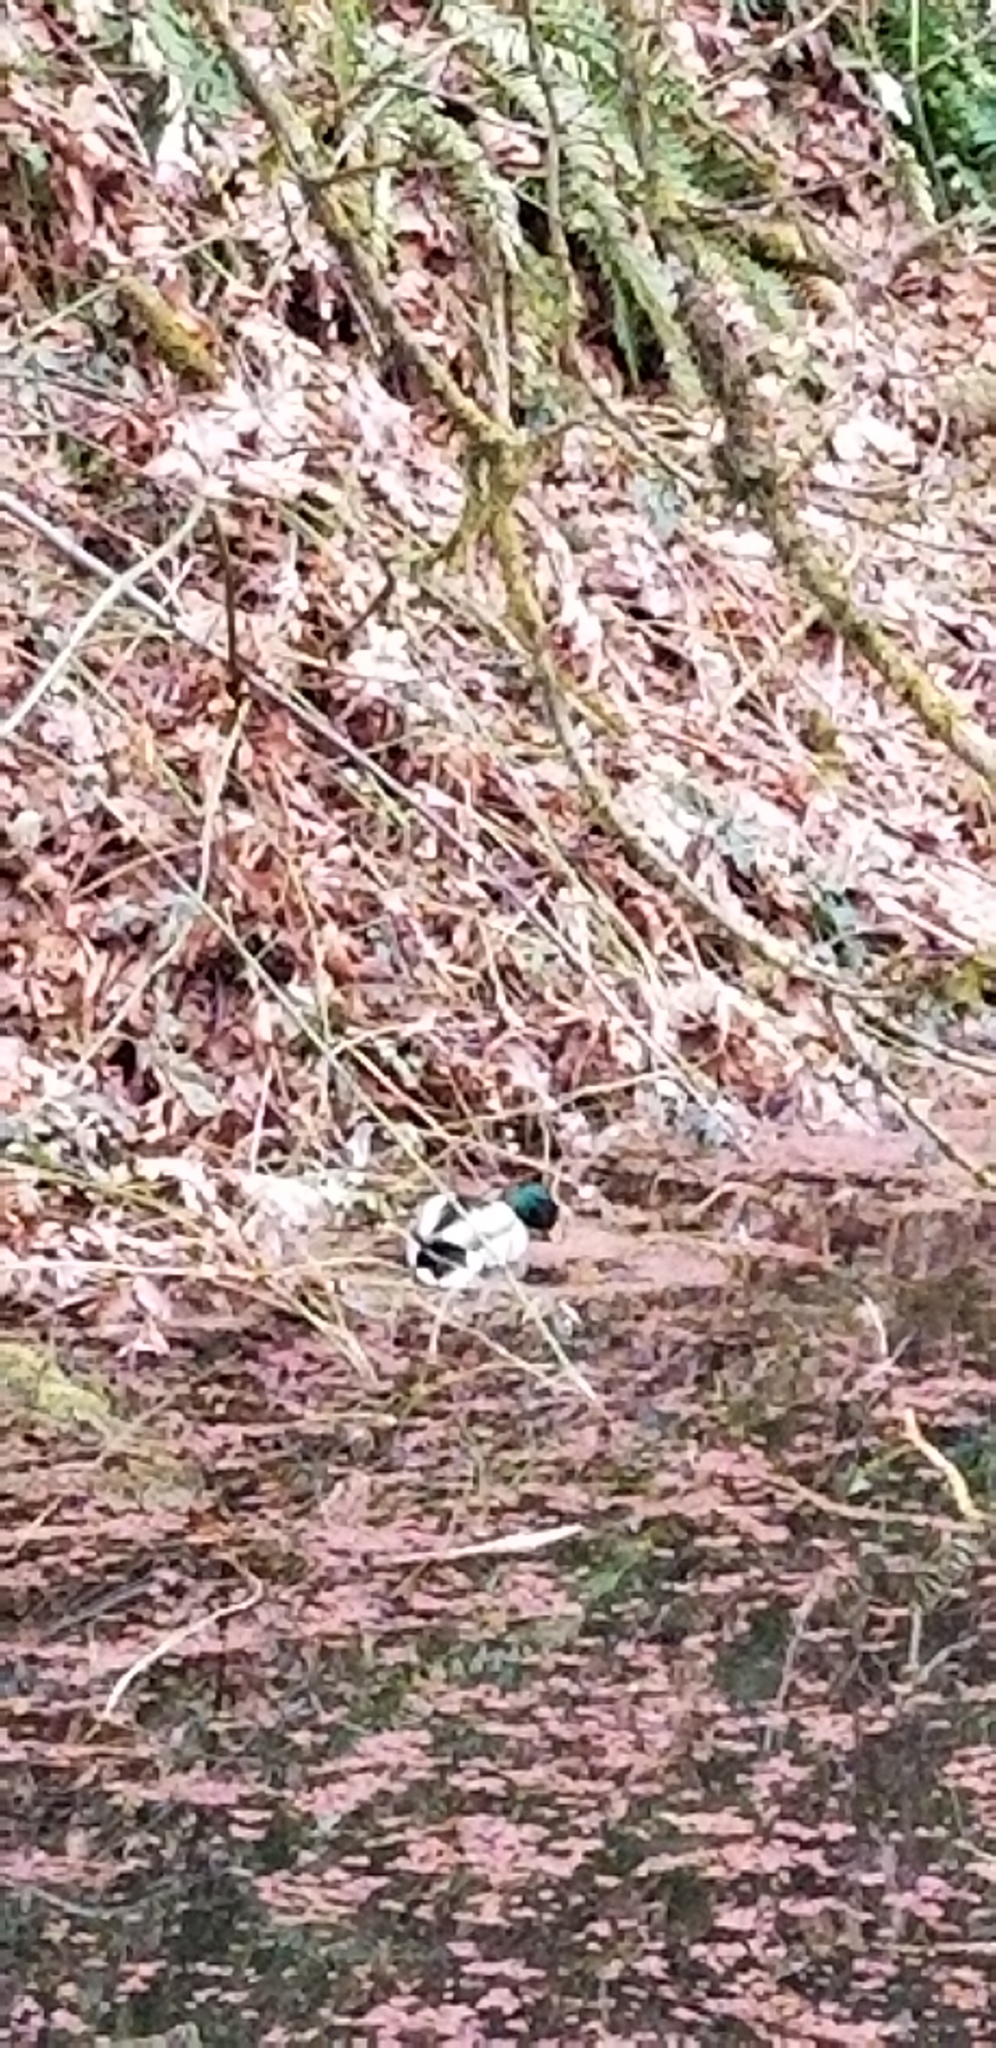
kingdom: Animalia
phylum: Chordata
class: Aves
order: Anseriformes
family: Anatidae
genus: Anas
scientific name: Anas platyrhynchos
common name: Mallard
